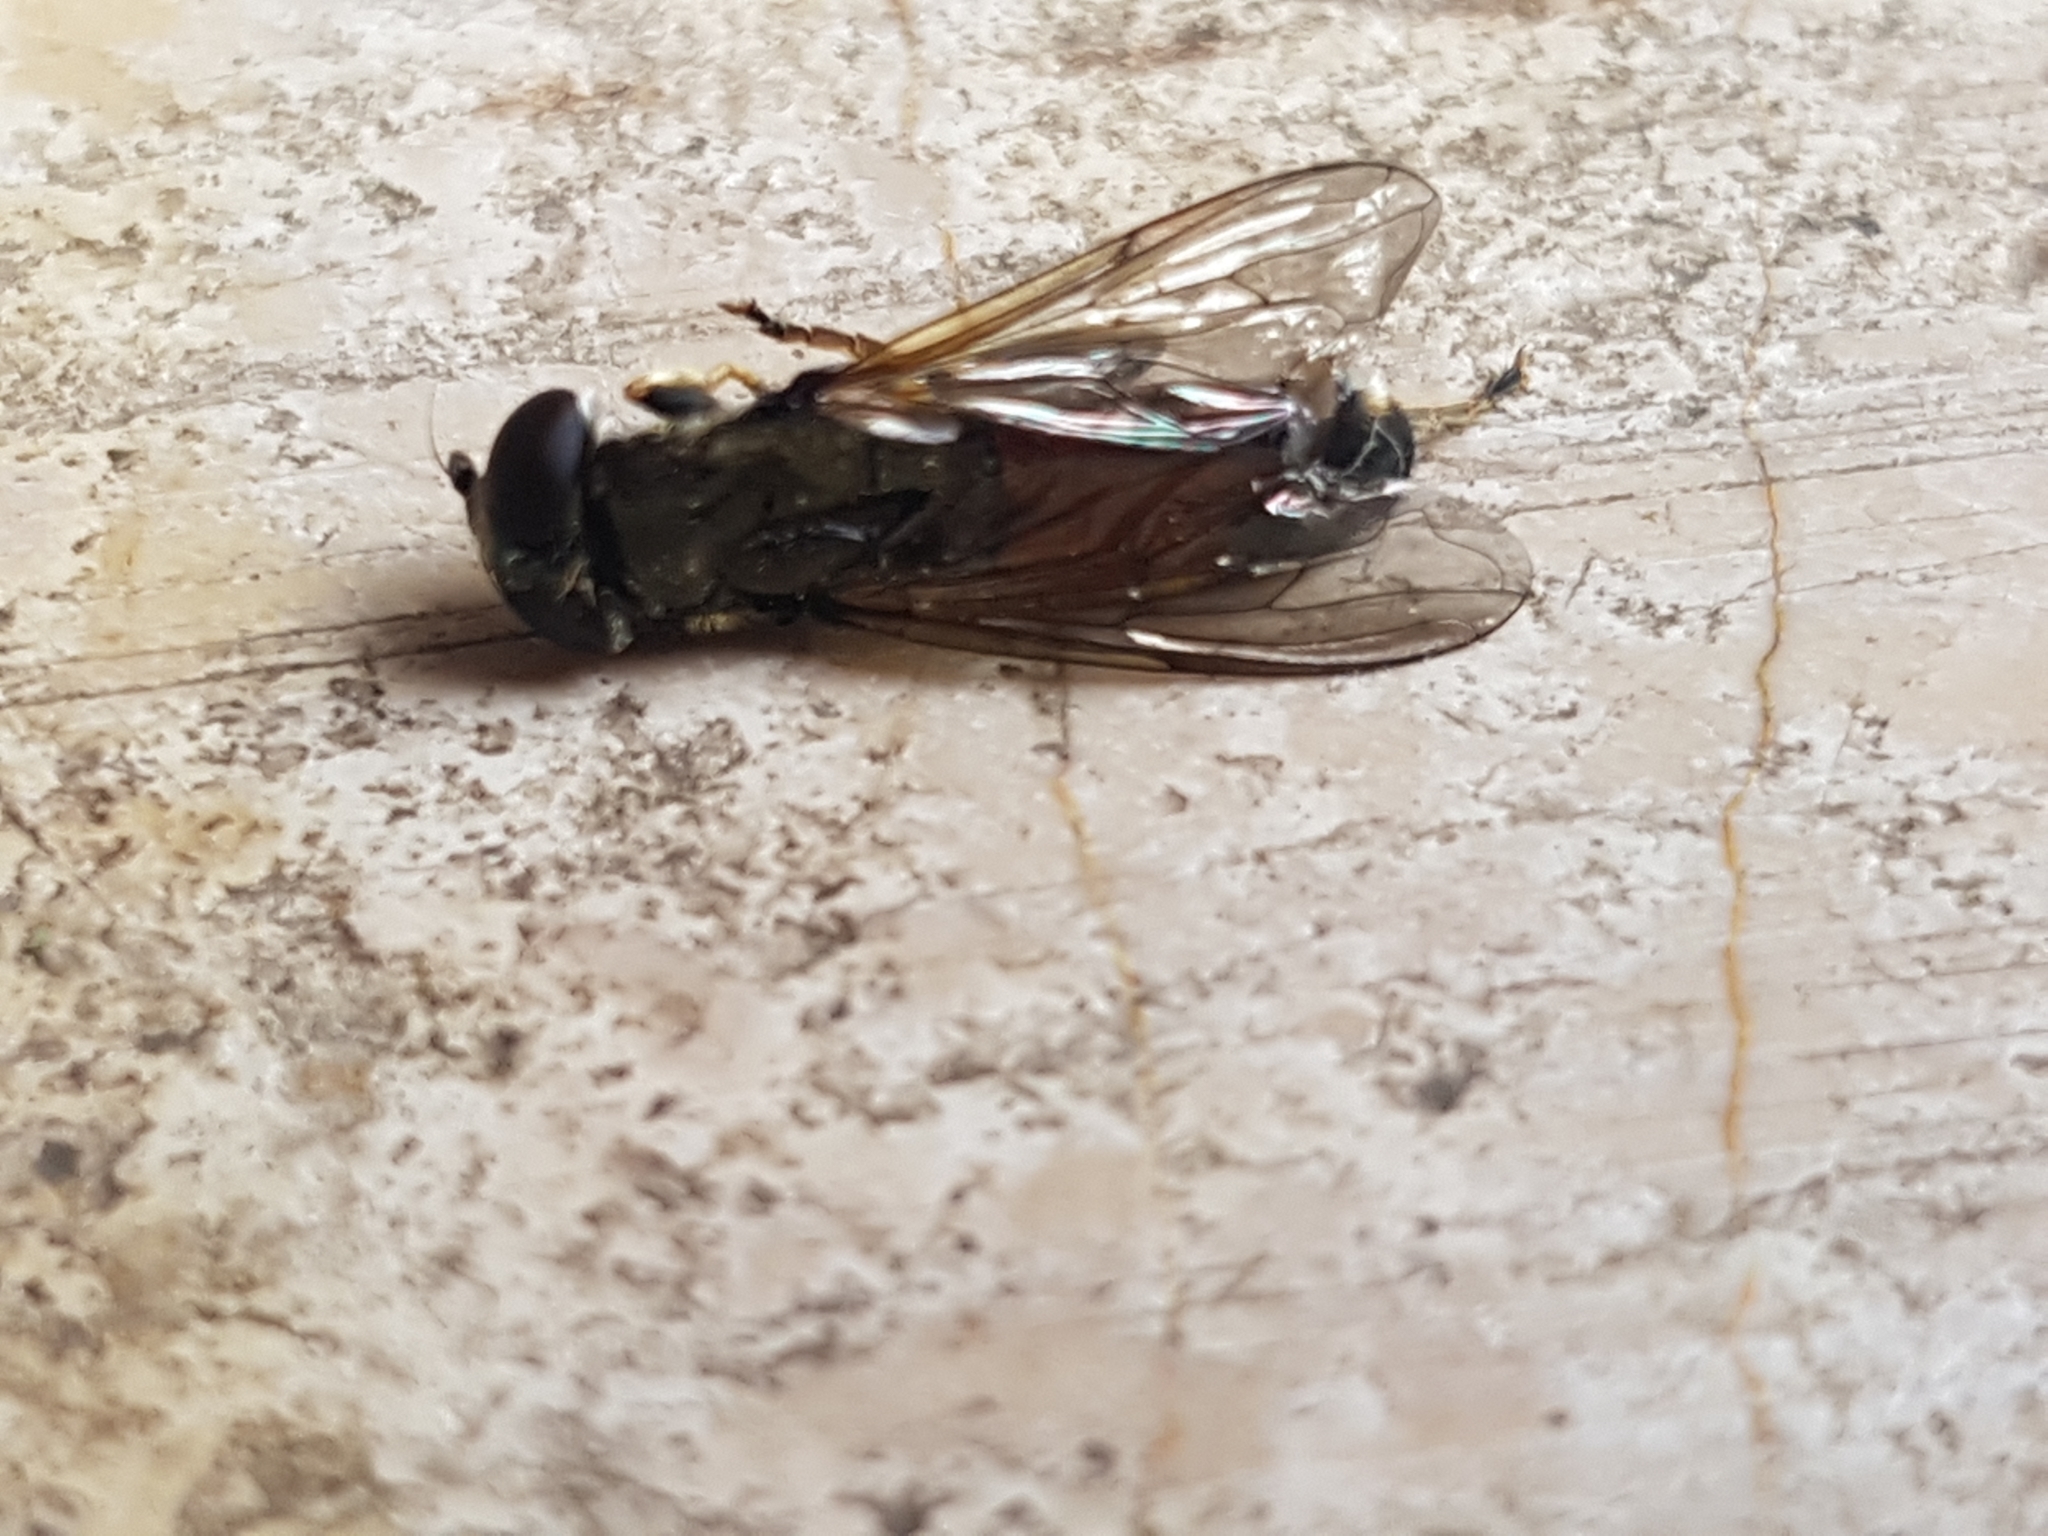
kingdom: Animalia
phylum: Arthropoda
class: Insecta
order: Diptera
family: Syrphidae
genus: Xylota
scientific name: Xylota
